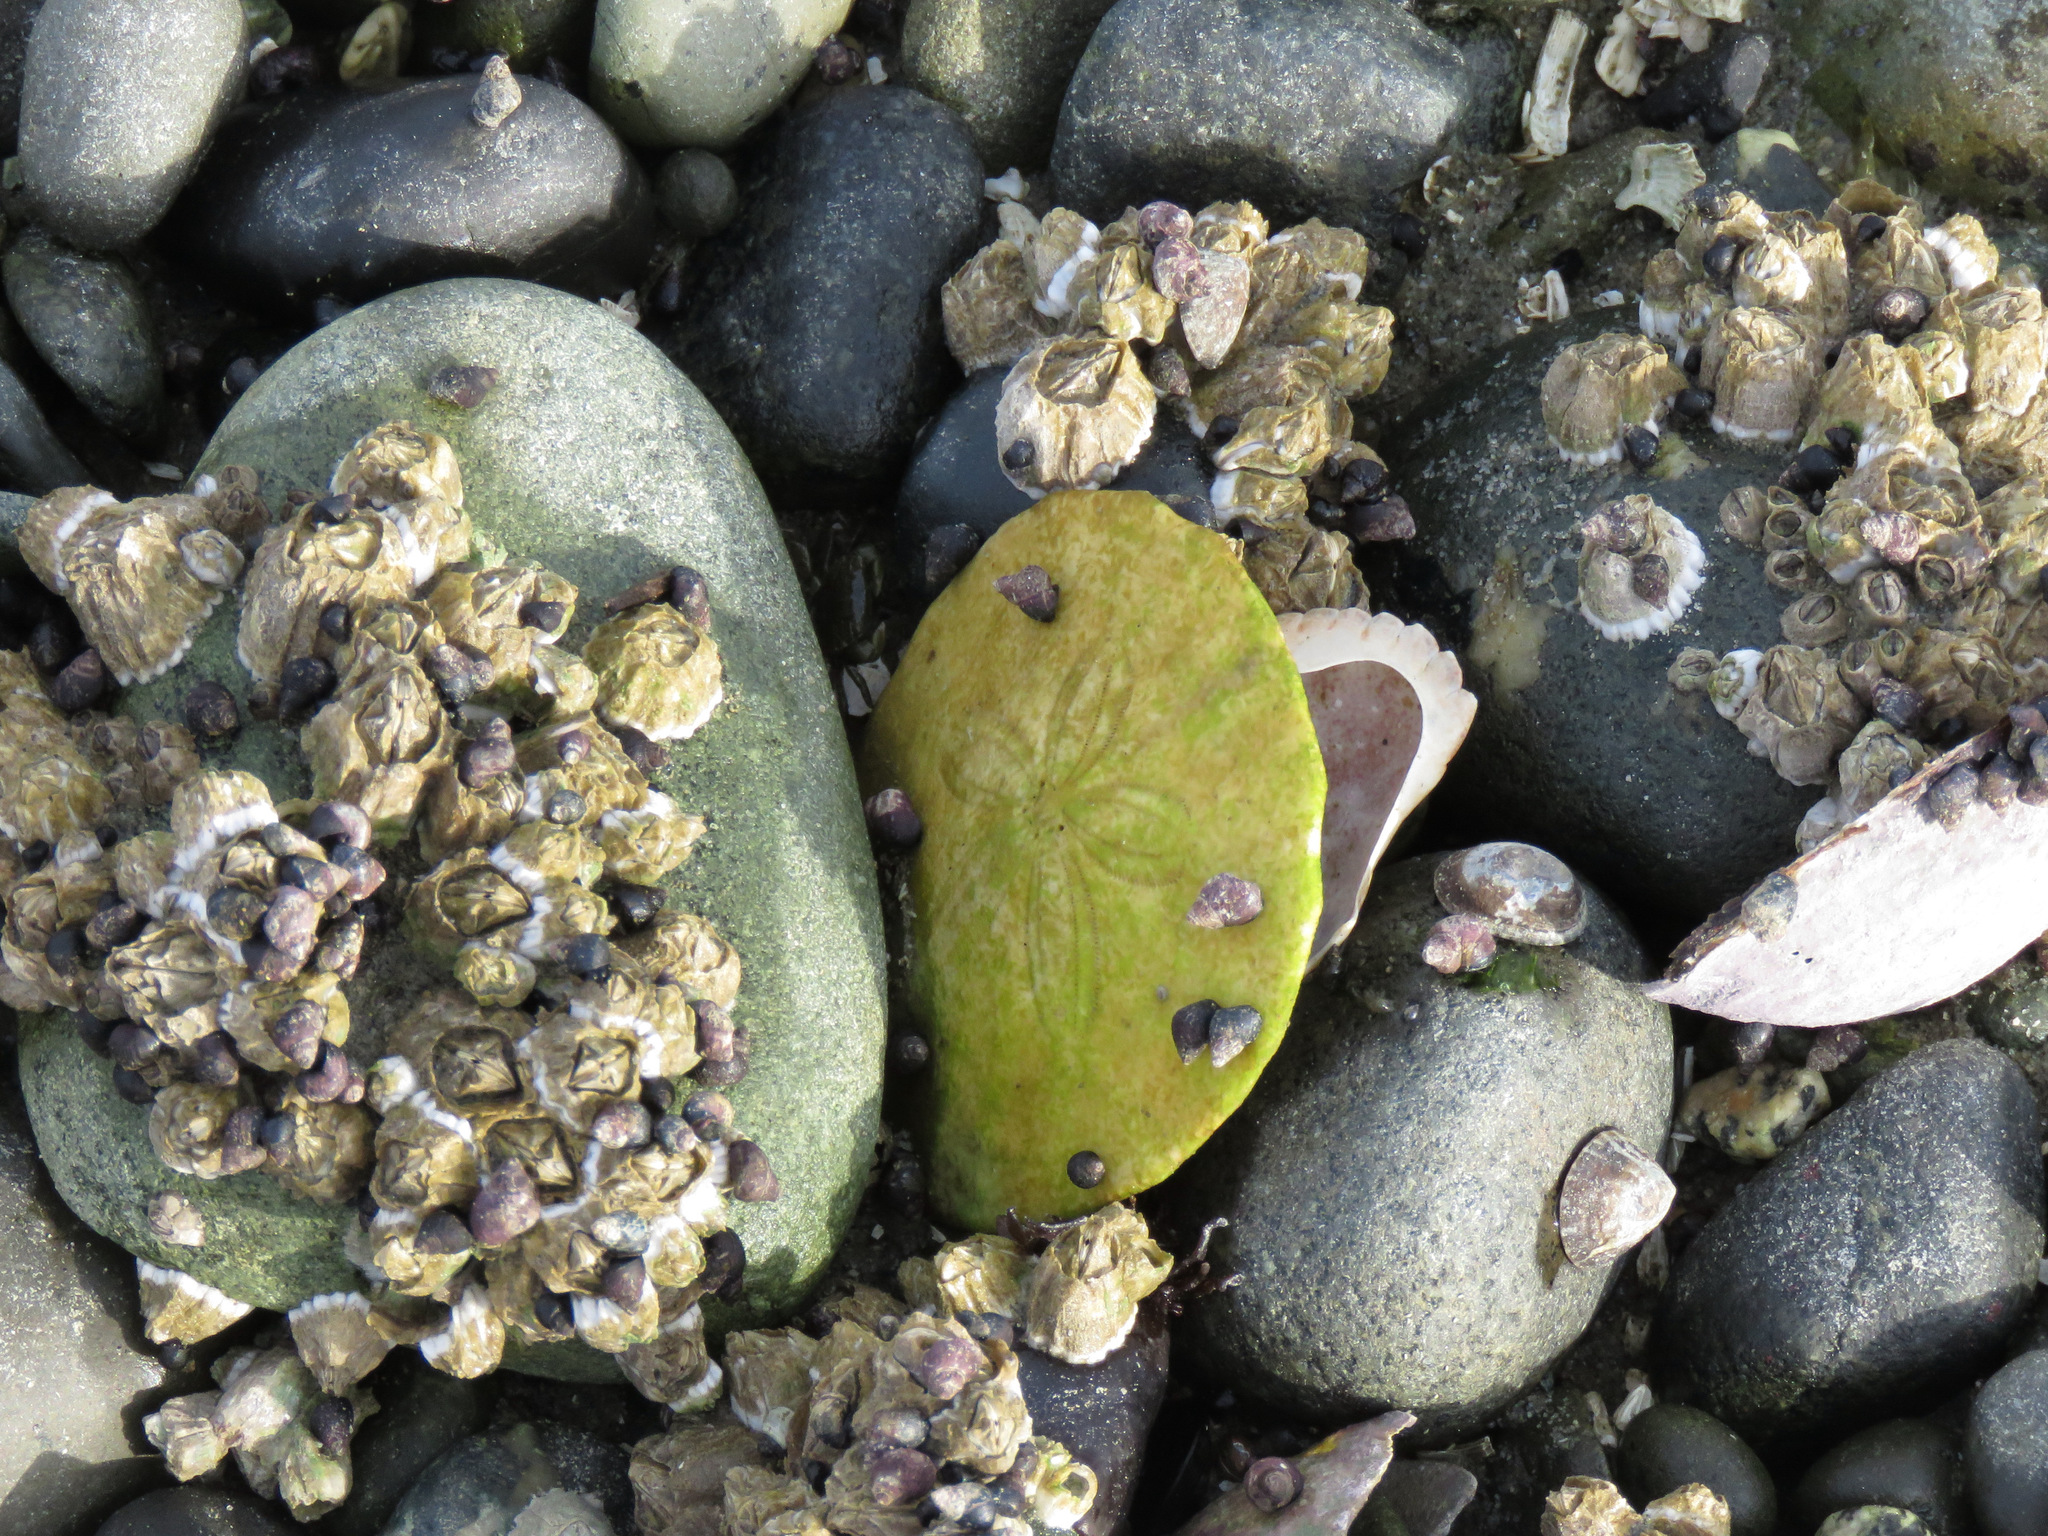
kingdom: Animalia
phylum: Echinodermata
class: Echinoidea
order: Echinolampadacea
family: Dendrasteridae
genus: Dendraster
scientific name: Dendraster excentricus
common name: Eccentric sand dollar sea urchin
